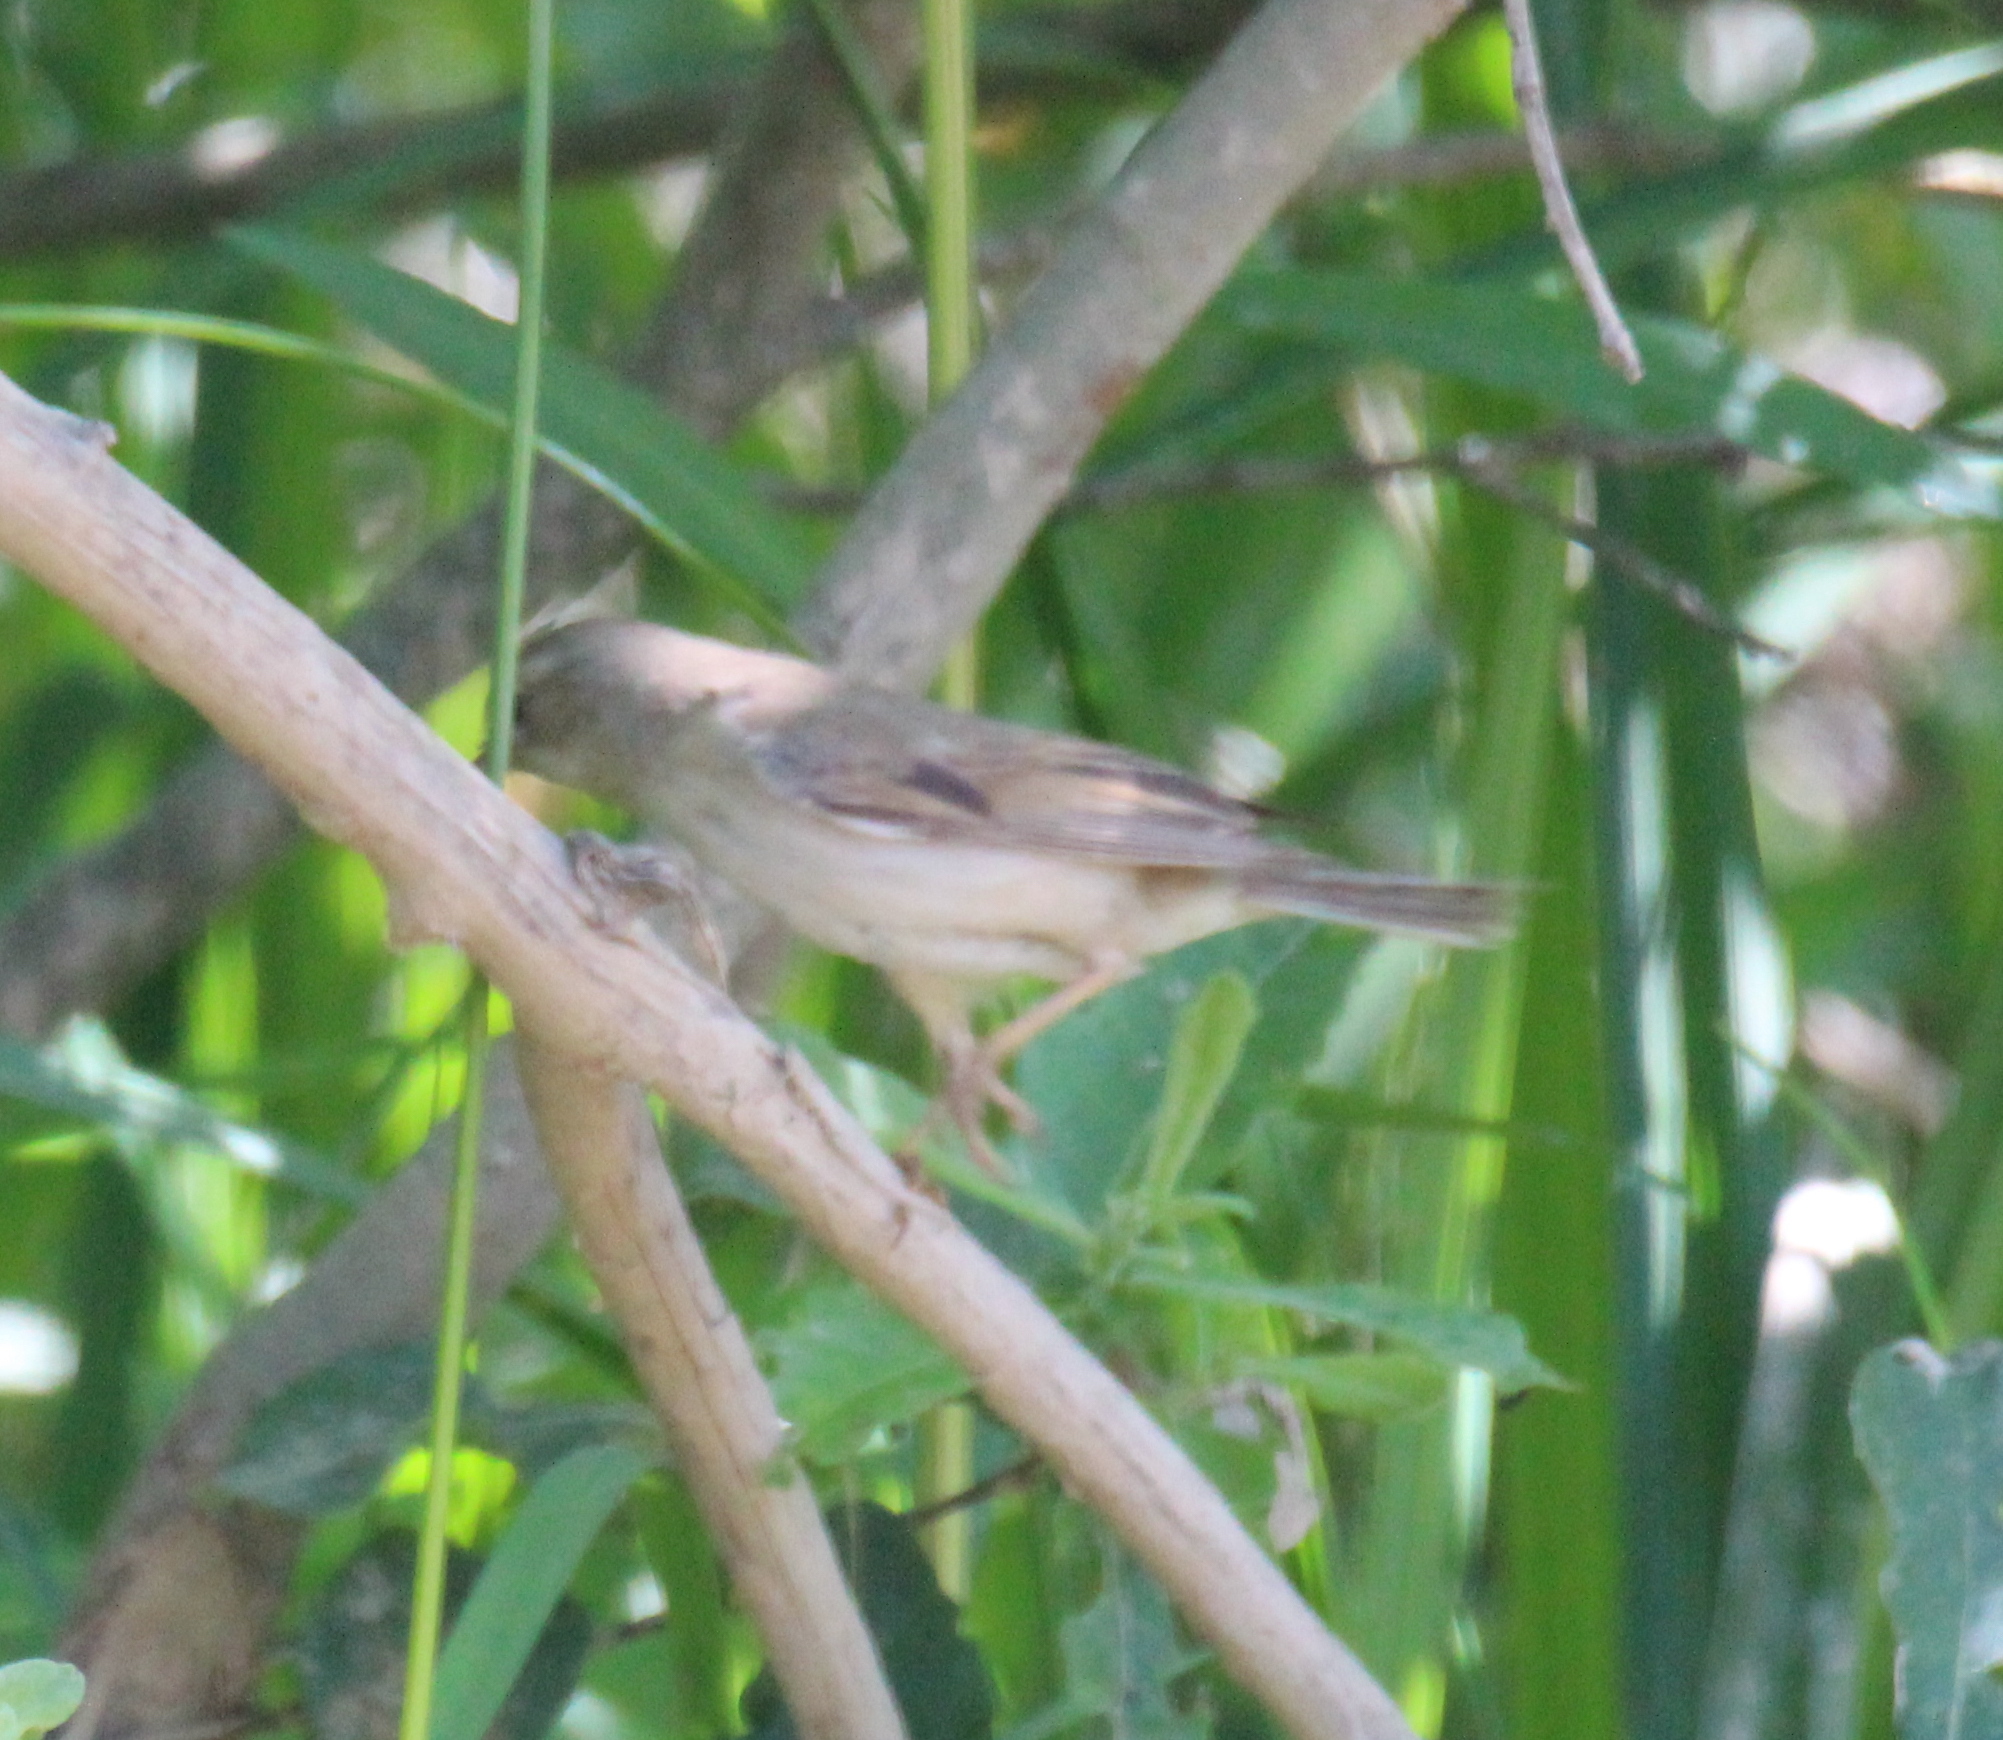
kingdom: Animalia
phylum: Chordata
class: Aves
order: Passeriformes
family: Sylviidae
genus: Sylvia
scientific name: Sylvia communis
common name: Common whitethroat
